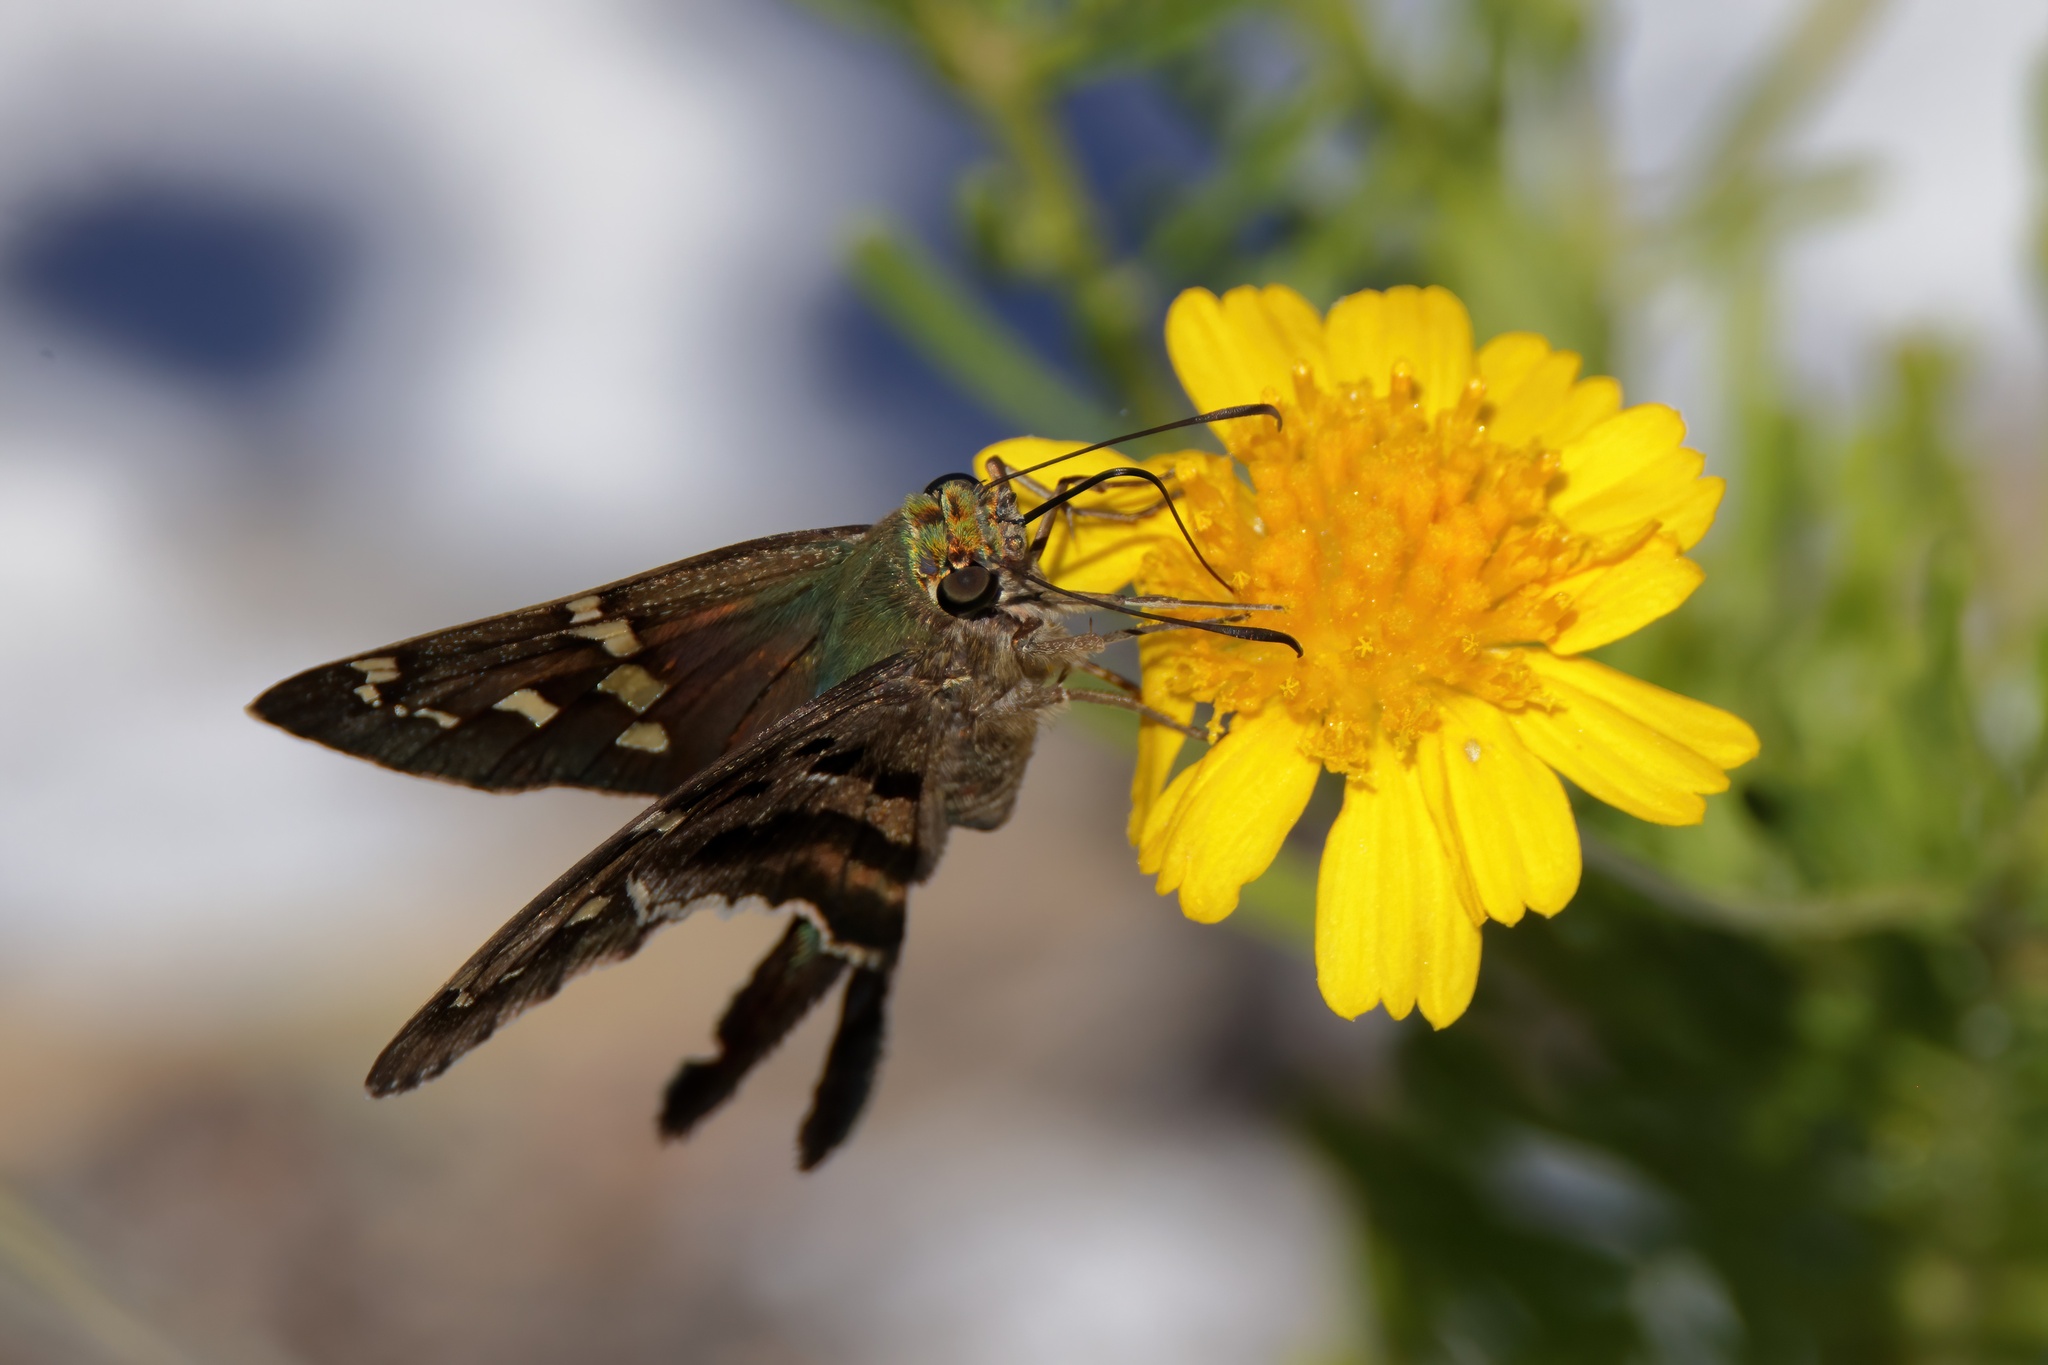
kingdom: Animalia
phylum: Arthropoda
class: Insecta
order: Lepidoptera
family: Hesperiidae
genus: Urbanus
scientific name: Urbanus proteus
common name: Long-tailed skipper
